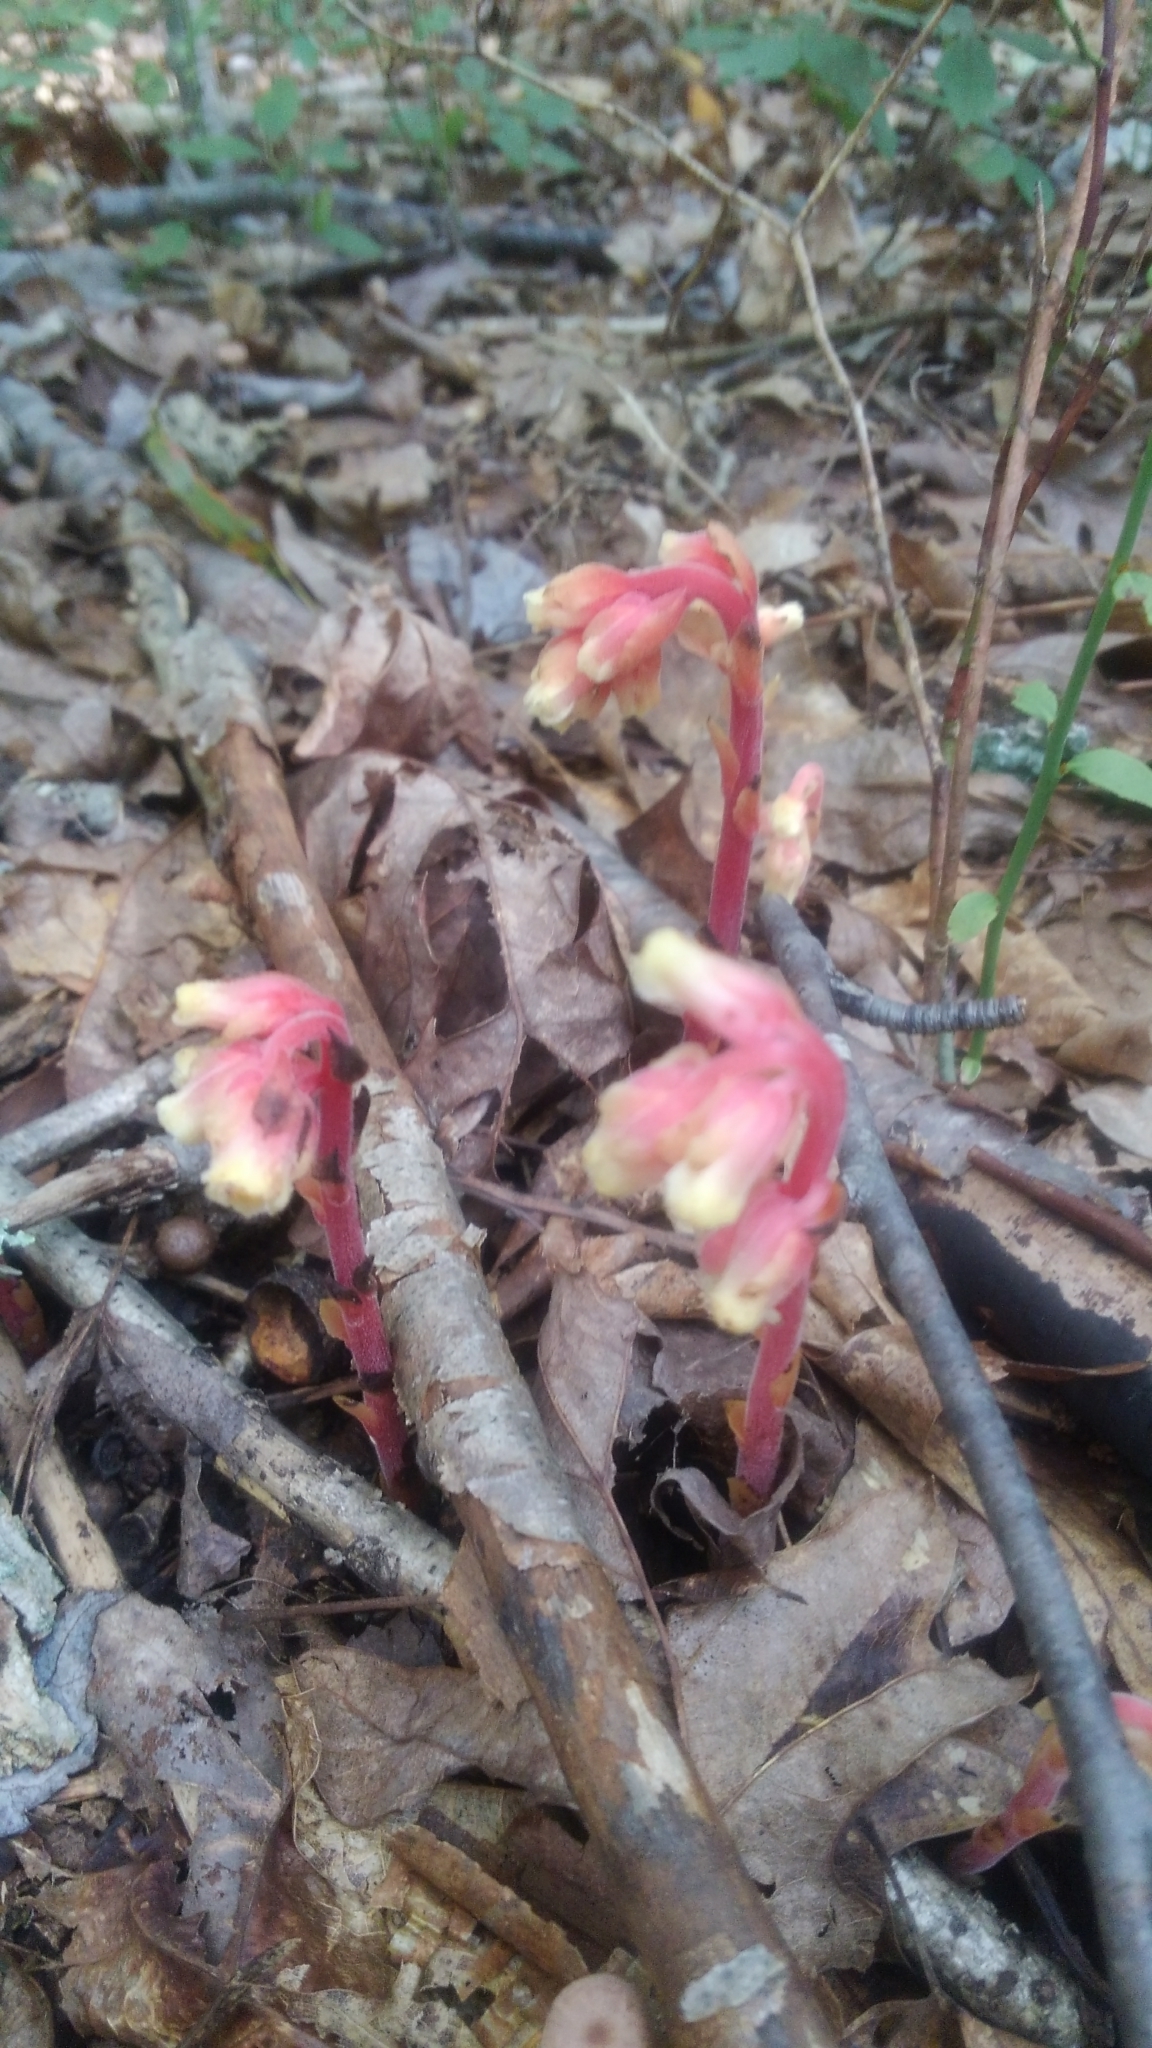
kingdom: Plantae
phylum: Tracheophyta
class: Magnoliopsida
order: Ericales
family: Ericaceae
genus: Hypopitys
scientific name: Hypopitys monotropa
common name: Yellow bird's-nest
